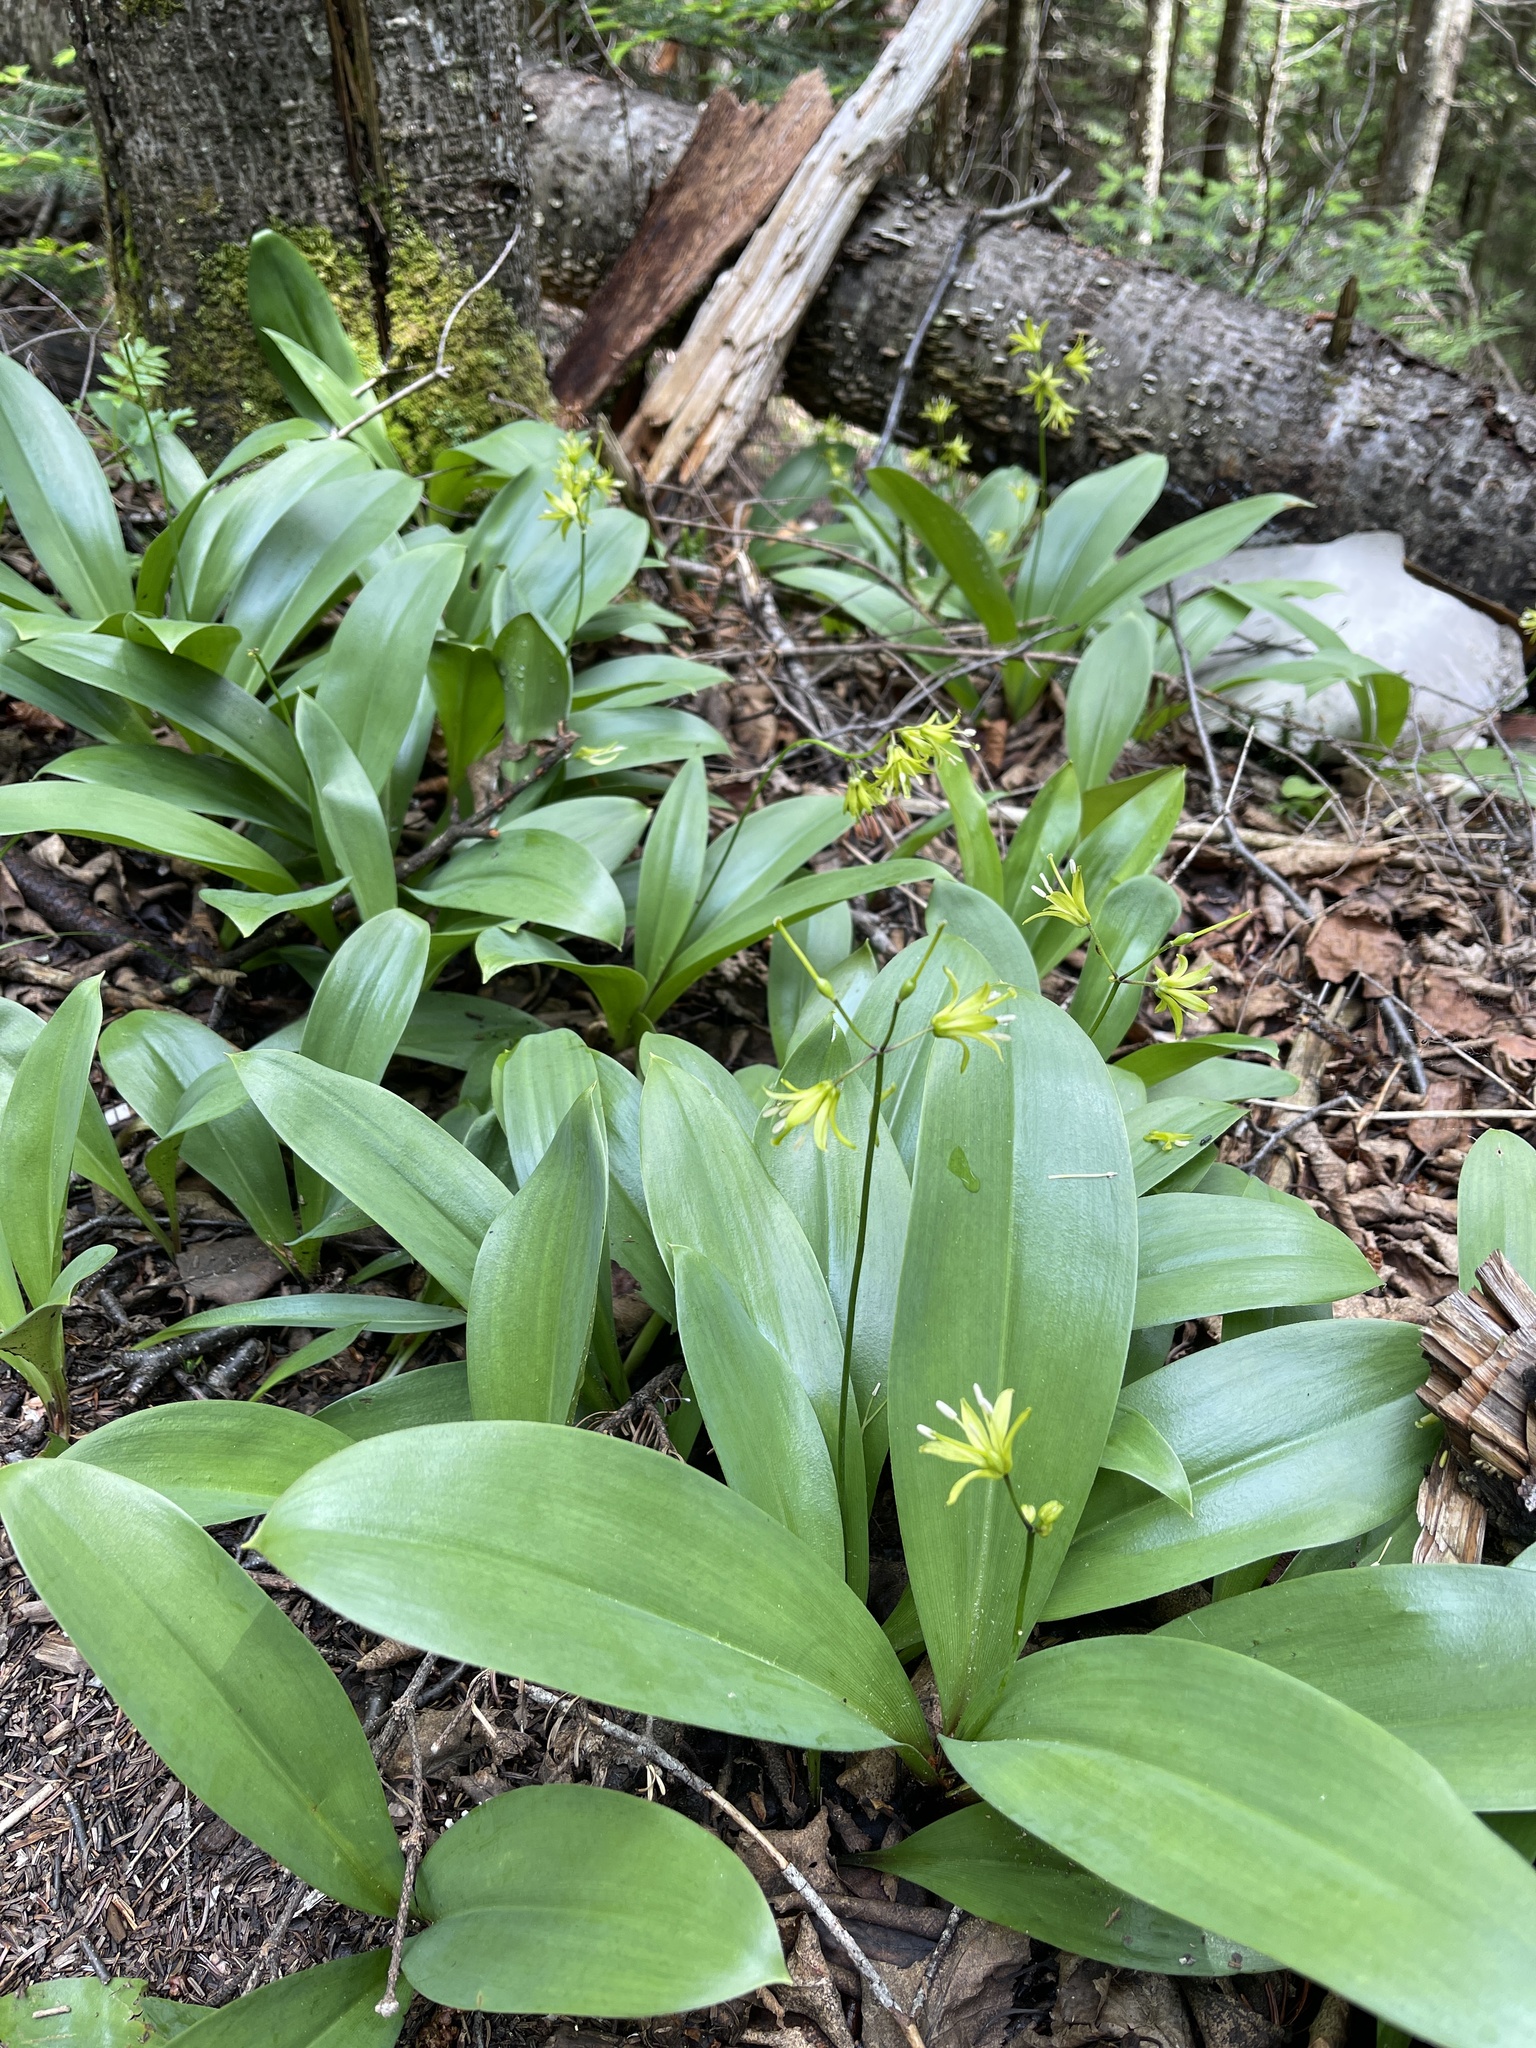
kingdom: Plantae
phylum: Tracheophyta
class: Liliopsida
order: Liliales
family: Liliaceae
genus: Clintonia
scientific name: Clintonia borealis
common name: Yellow clintonia
